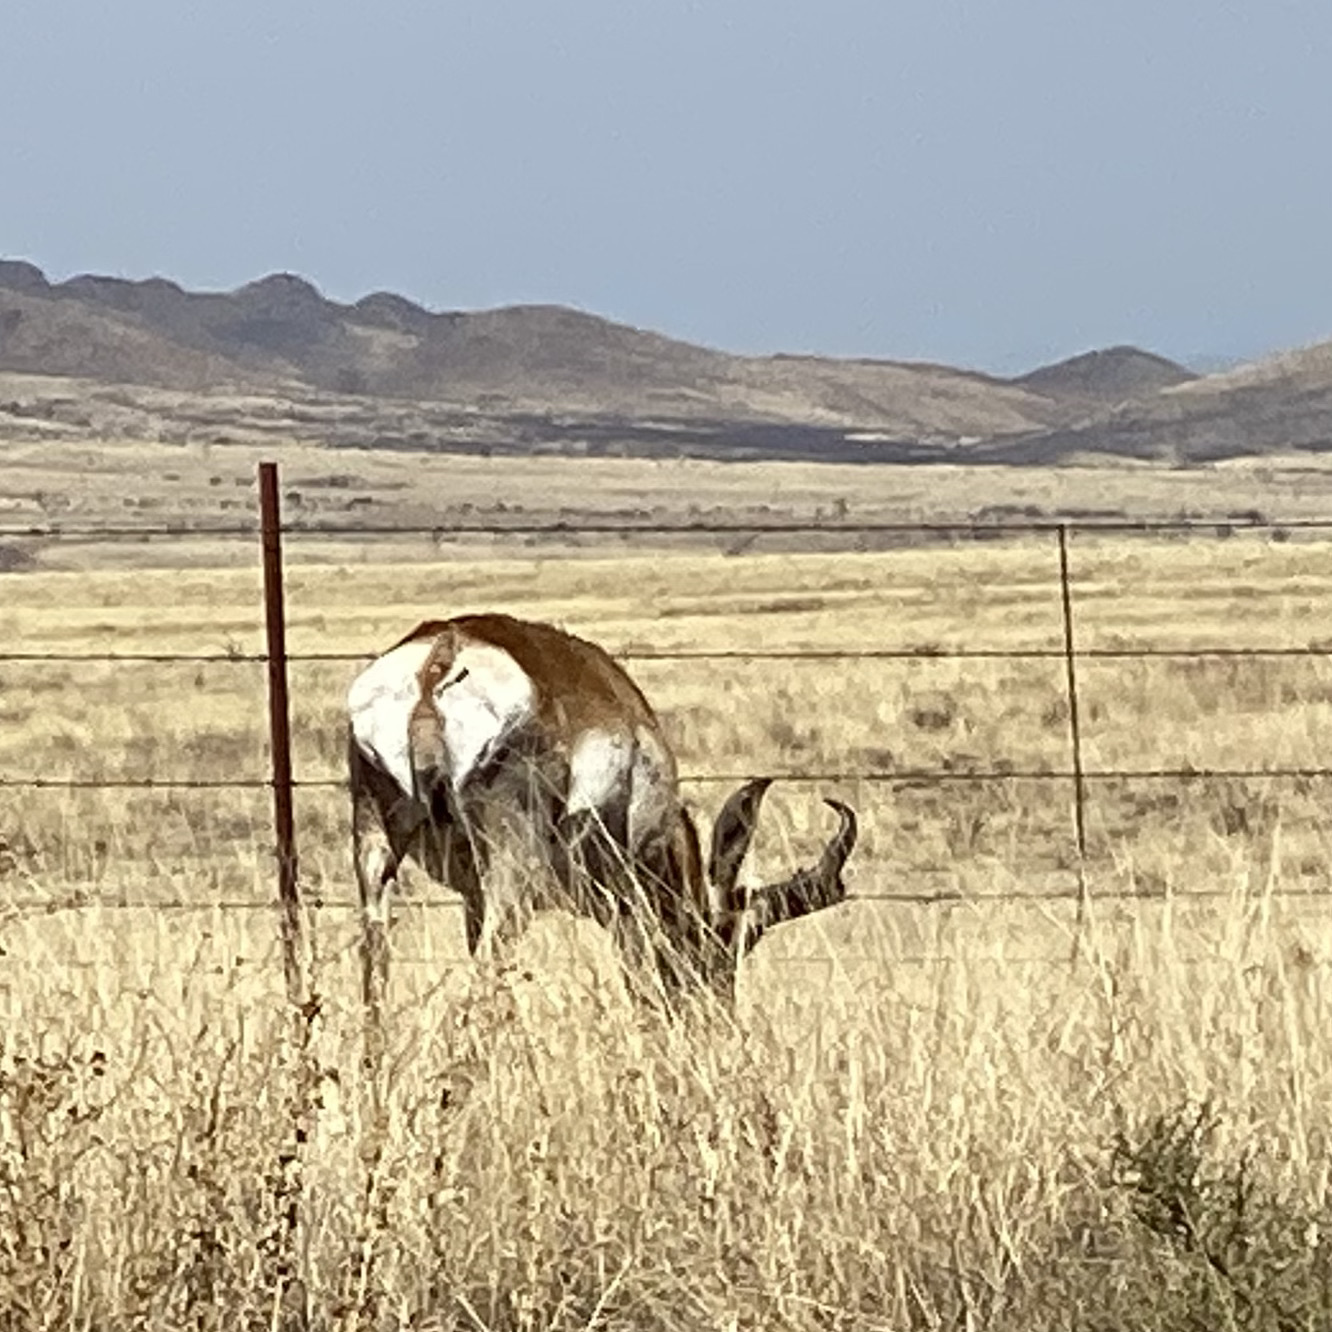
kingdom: Animalia
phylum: Chordata
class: Mammalia
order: Artiodactyla
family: Antilocapridae
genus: Antilocapra
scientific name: Antilocapra americana
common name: Pronghorn
